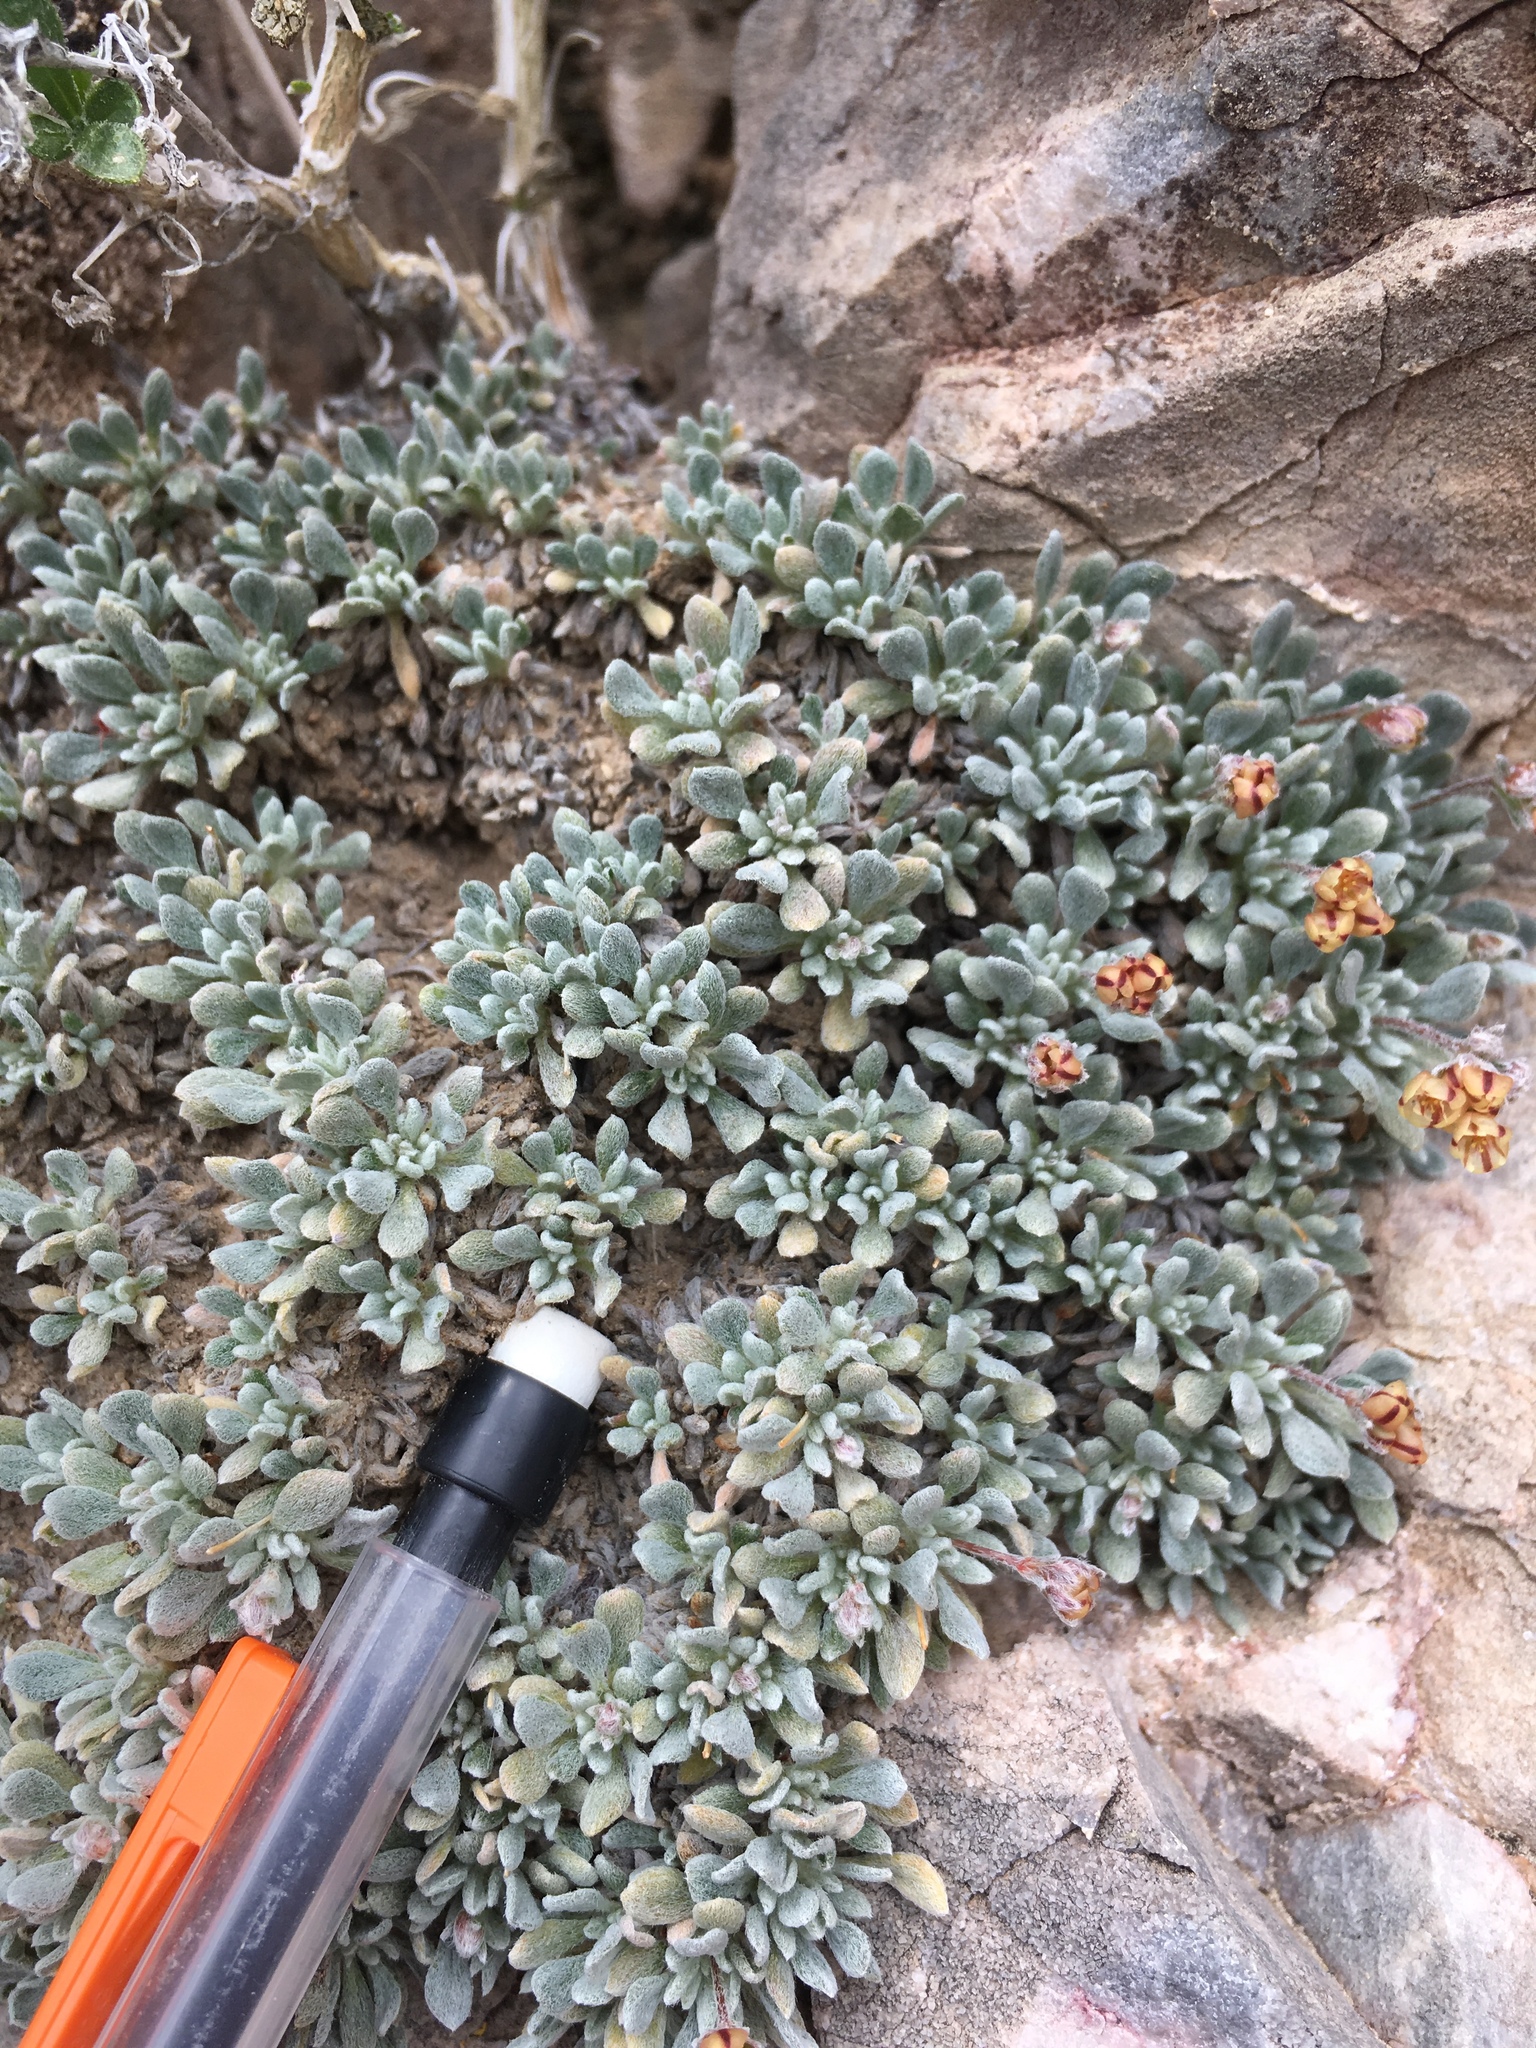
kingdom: Plantae
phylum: Tracheophyta
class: Magnoliopsida
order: Caryophyllales
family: Polygonaceae
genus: Eriogonum
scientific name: Eriogonum gilmanii
